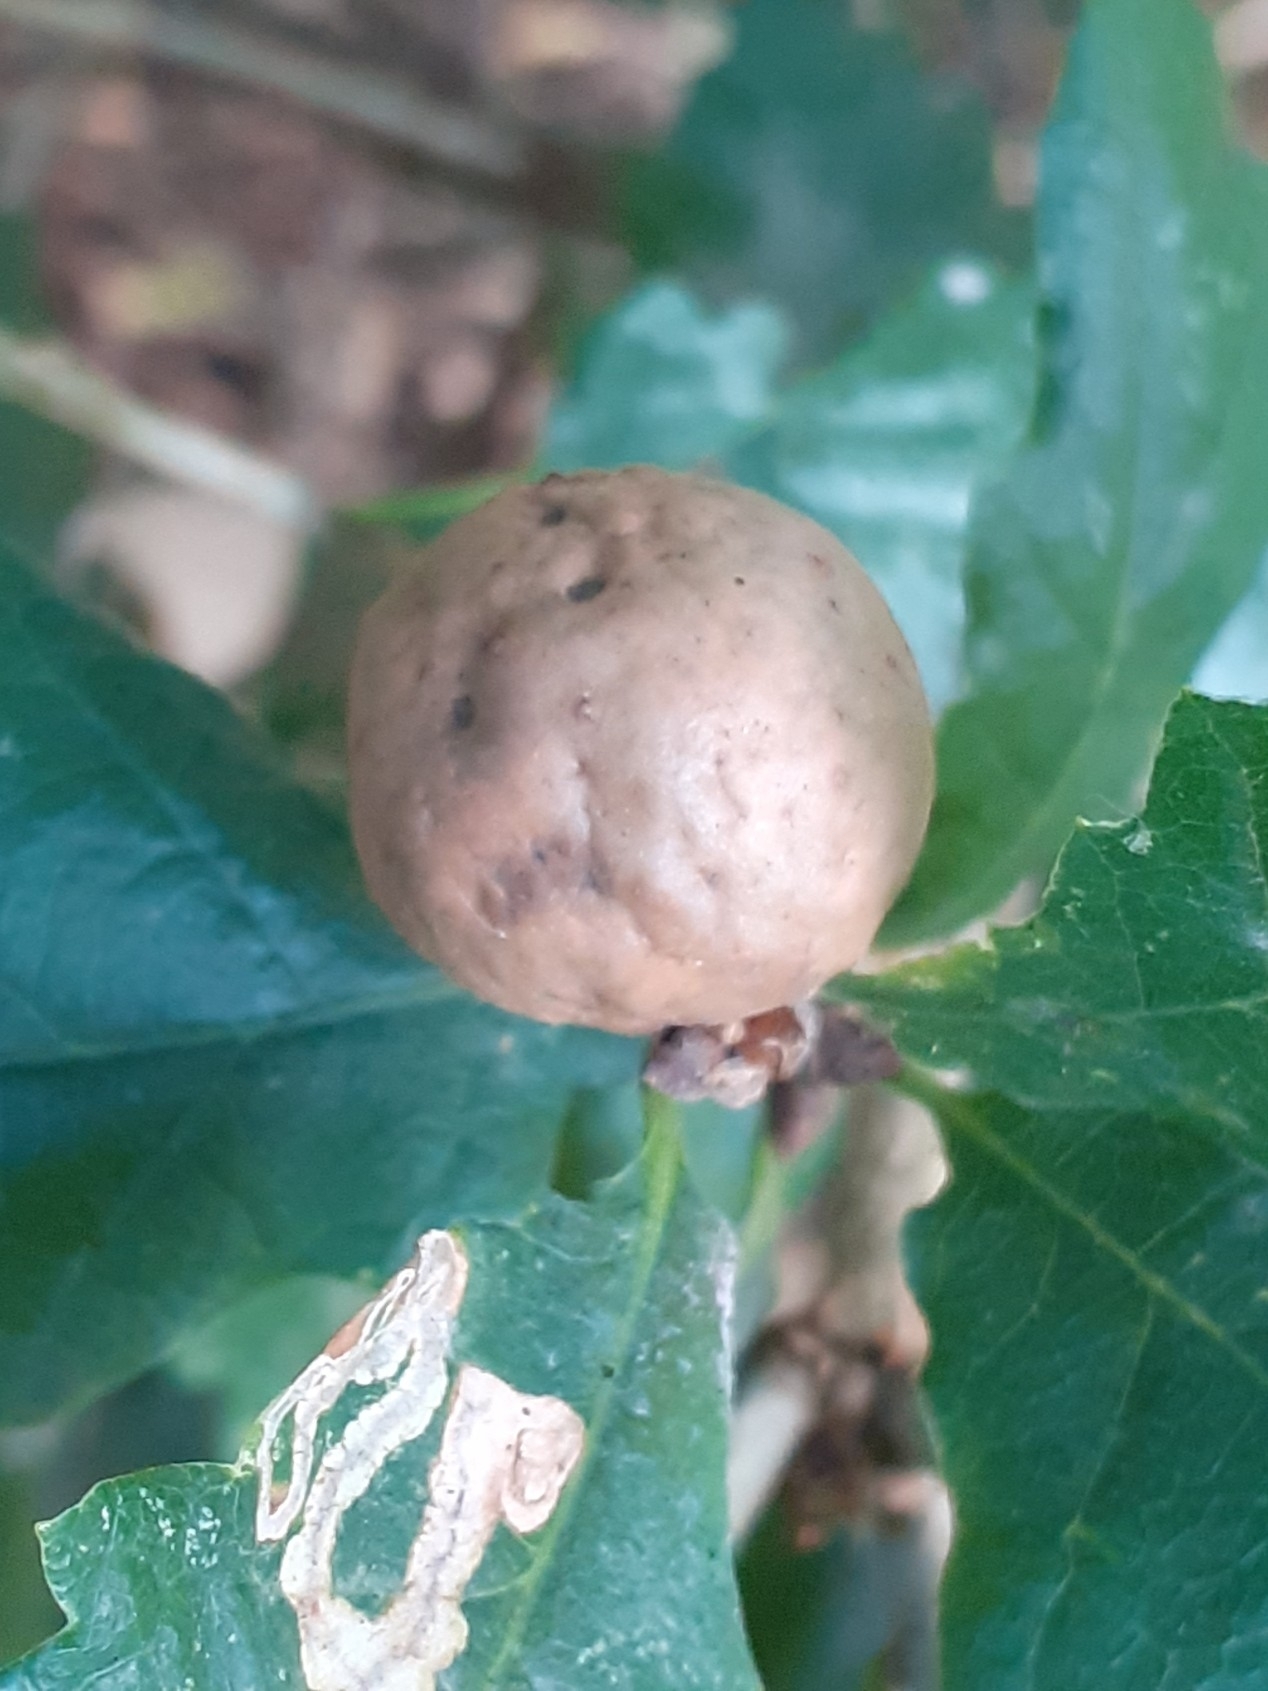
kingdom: Animalia
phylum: Arthropoda
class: Insecta
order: Hymenoptera
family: Cynipidae
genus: Andricus
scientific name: Andricus kollari
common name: Marble gall
